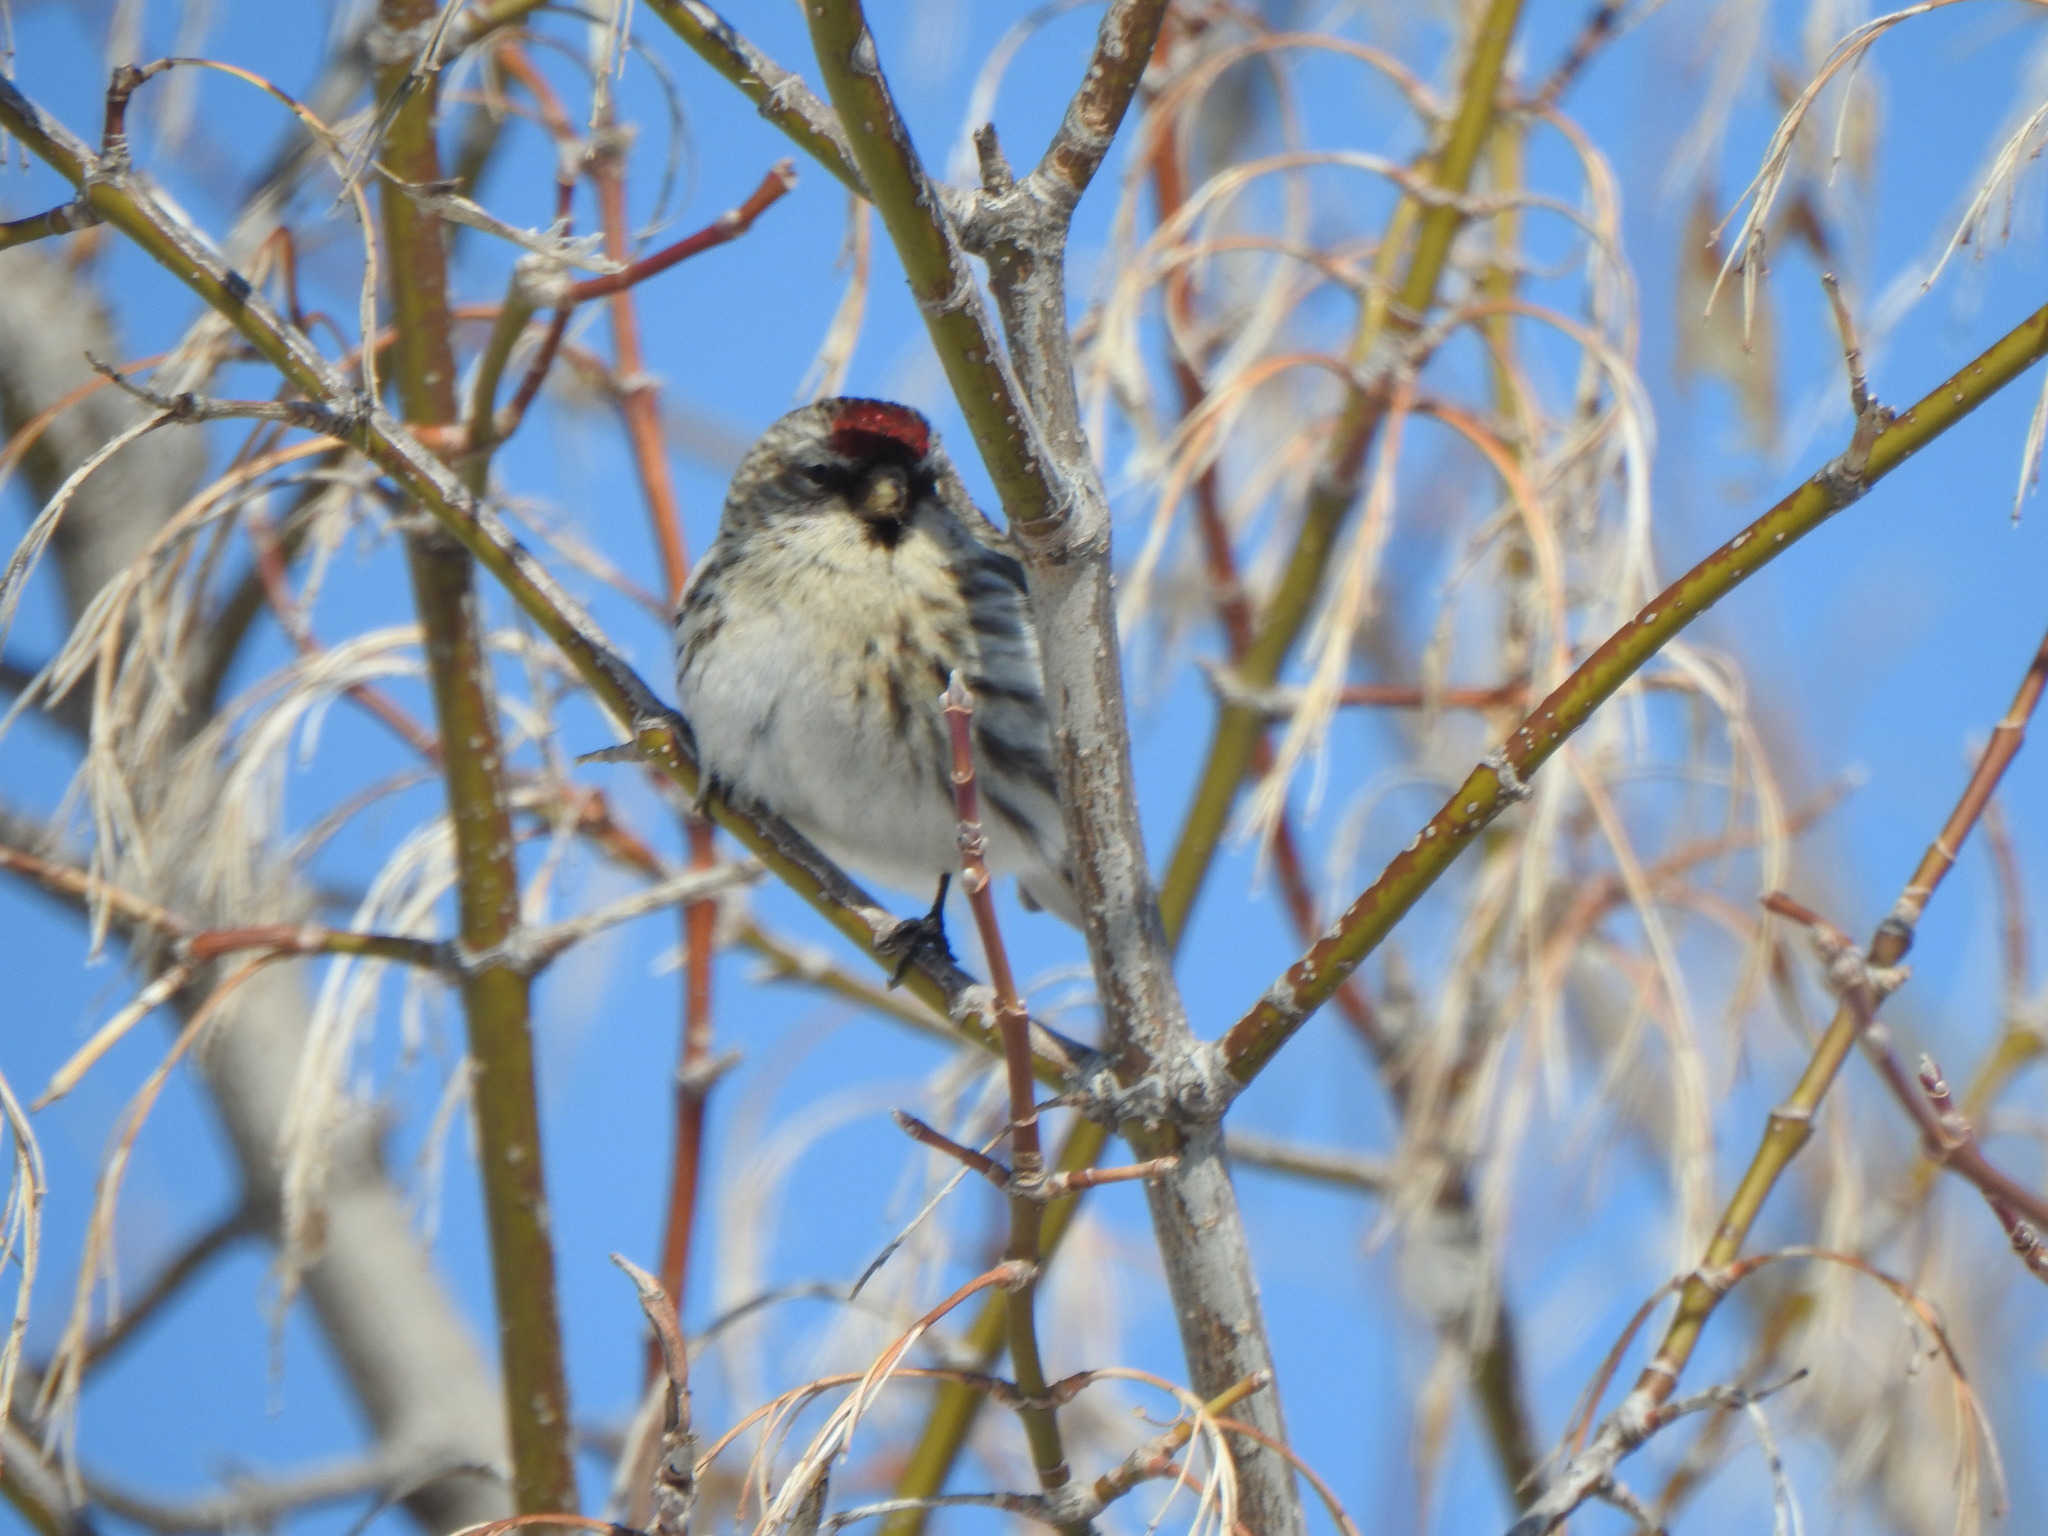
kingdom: Animalia
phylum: Chordata
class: Aves
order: Passeriformes
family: Fringillidae
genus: Acanthis
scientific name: Acanthis flammea
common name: Common redpoll
